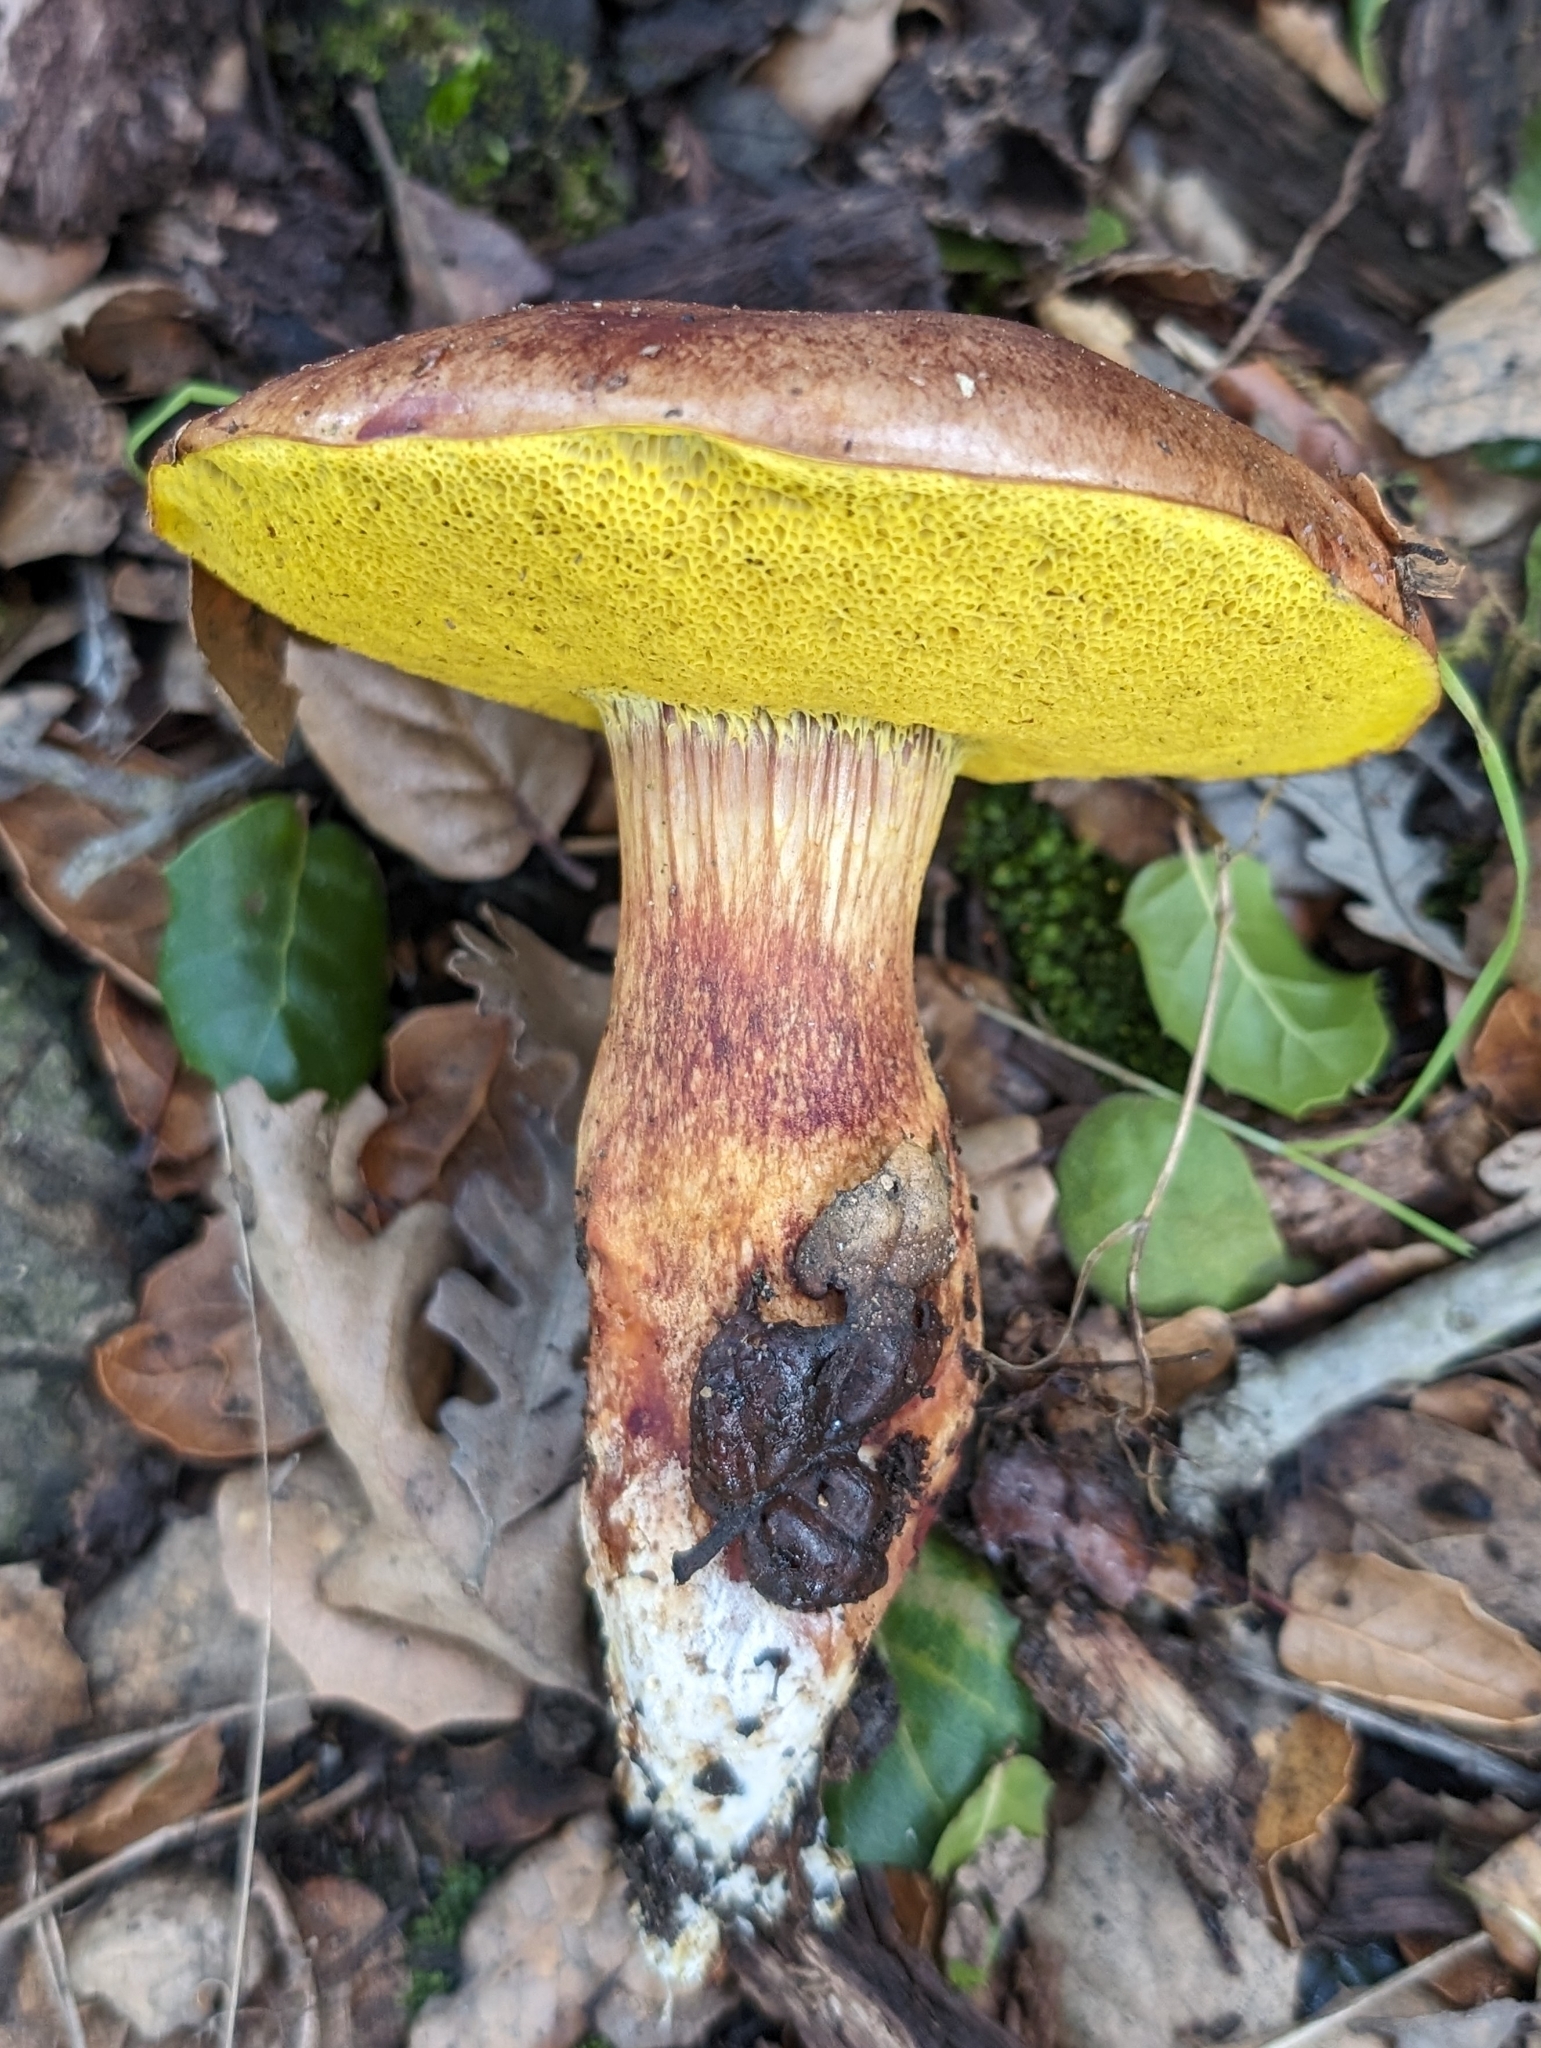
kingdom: Fungi
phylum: Basidiomycota
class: Agaricomycetes
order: Boletales
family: Boletaceae
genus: Aureoboletus
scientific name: Aureoboletus flaviporus
